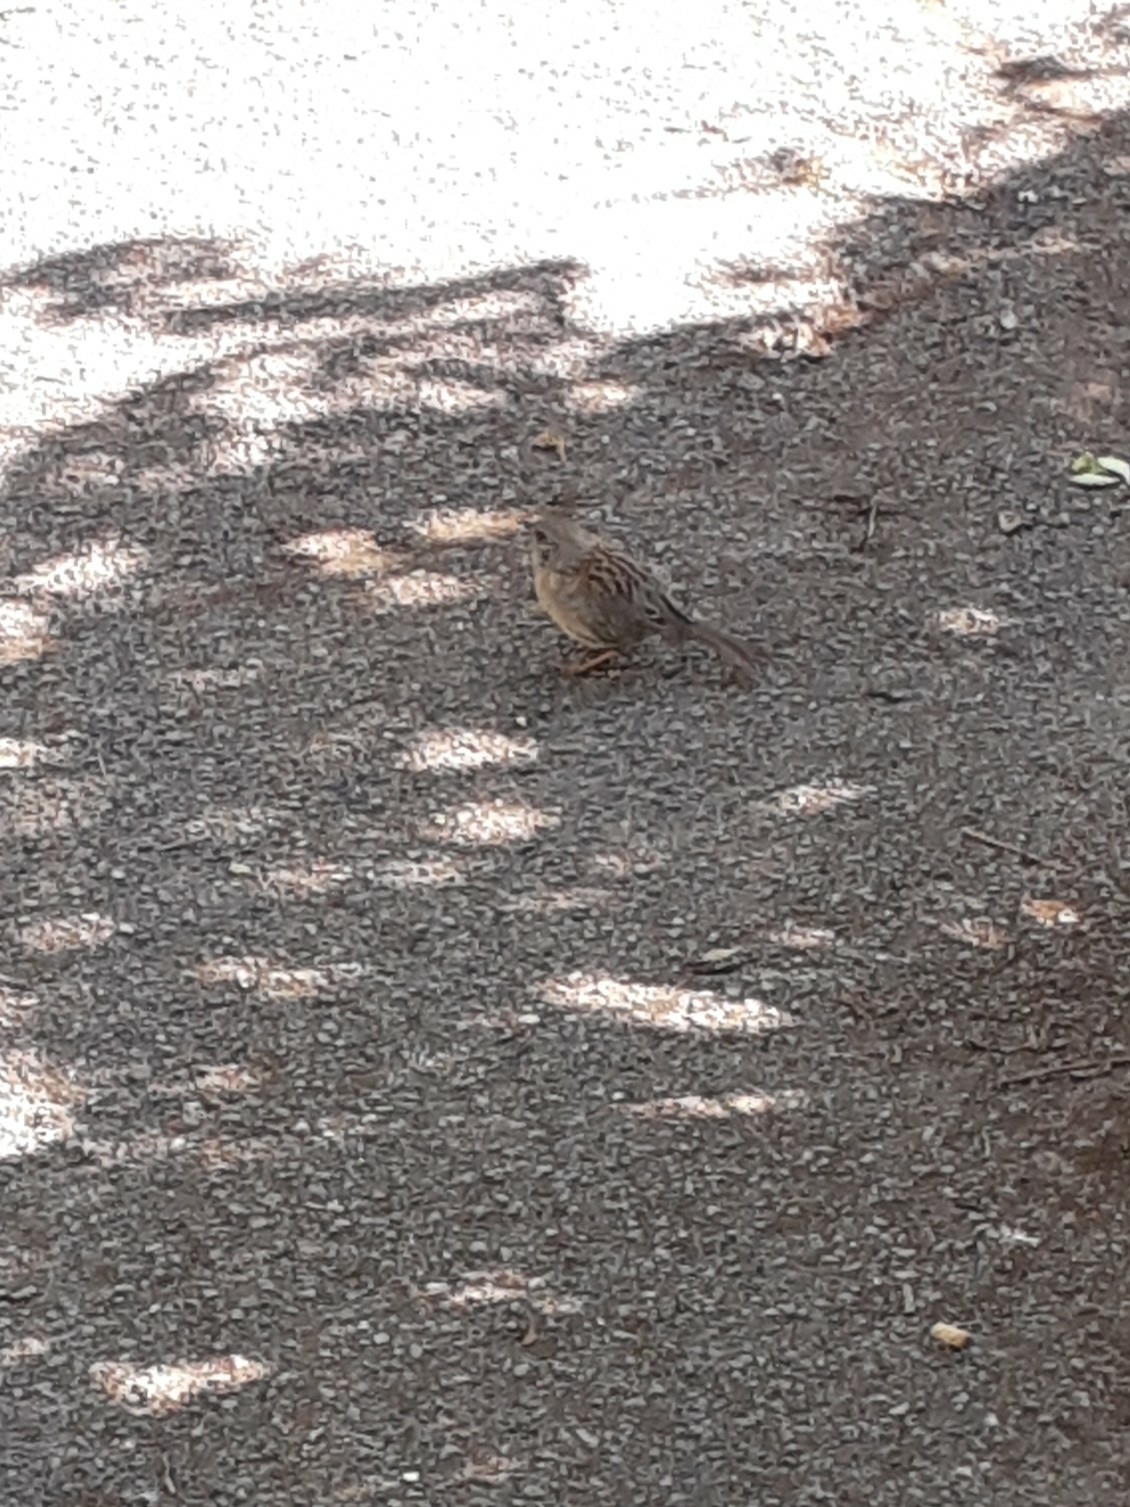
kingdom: Animalia
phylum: Chordata
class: Aves
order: Passeriformes
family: Prunellidae
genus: Prunella
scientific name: Prunella modularis
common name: Dunnock
